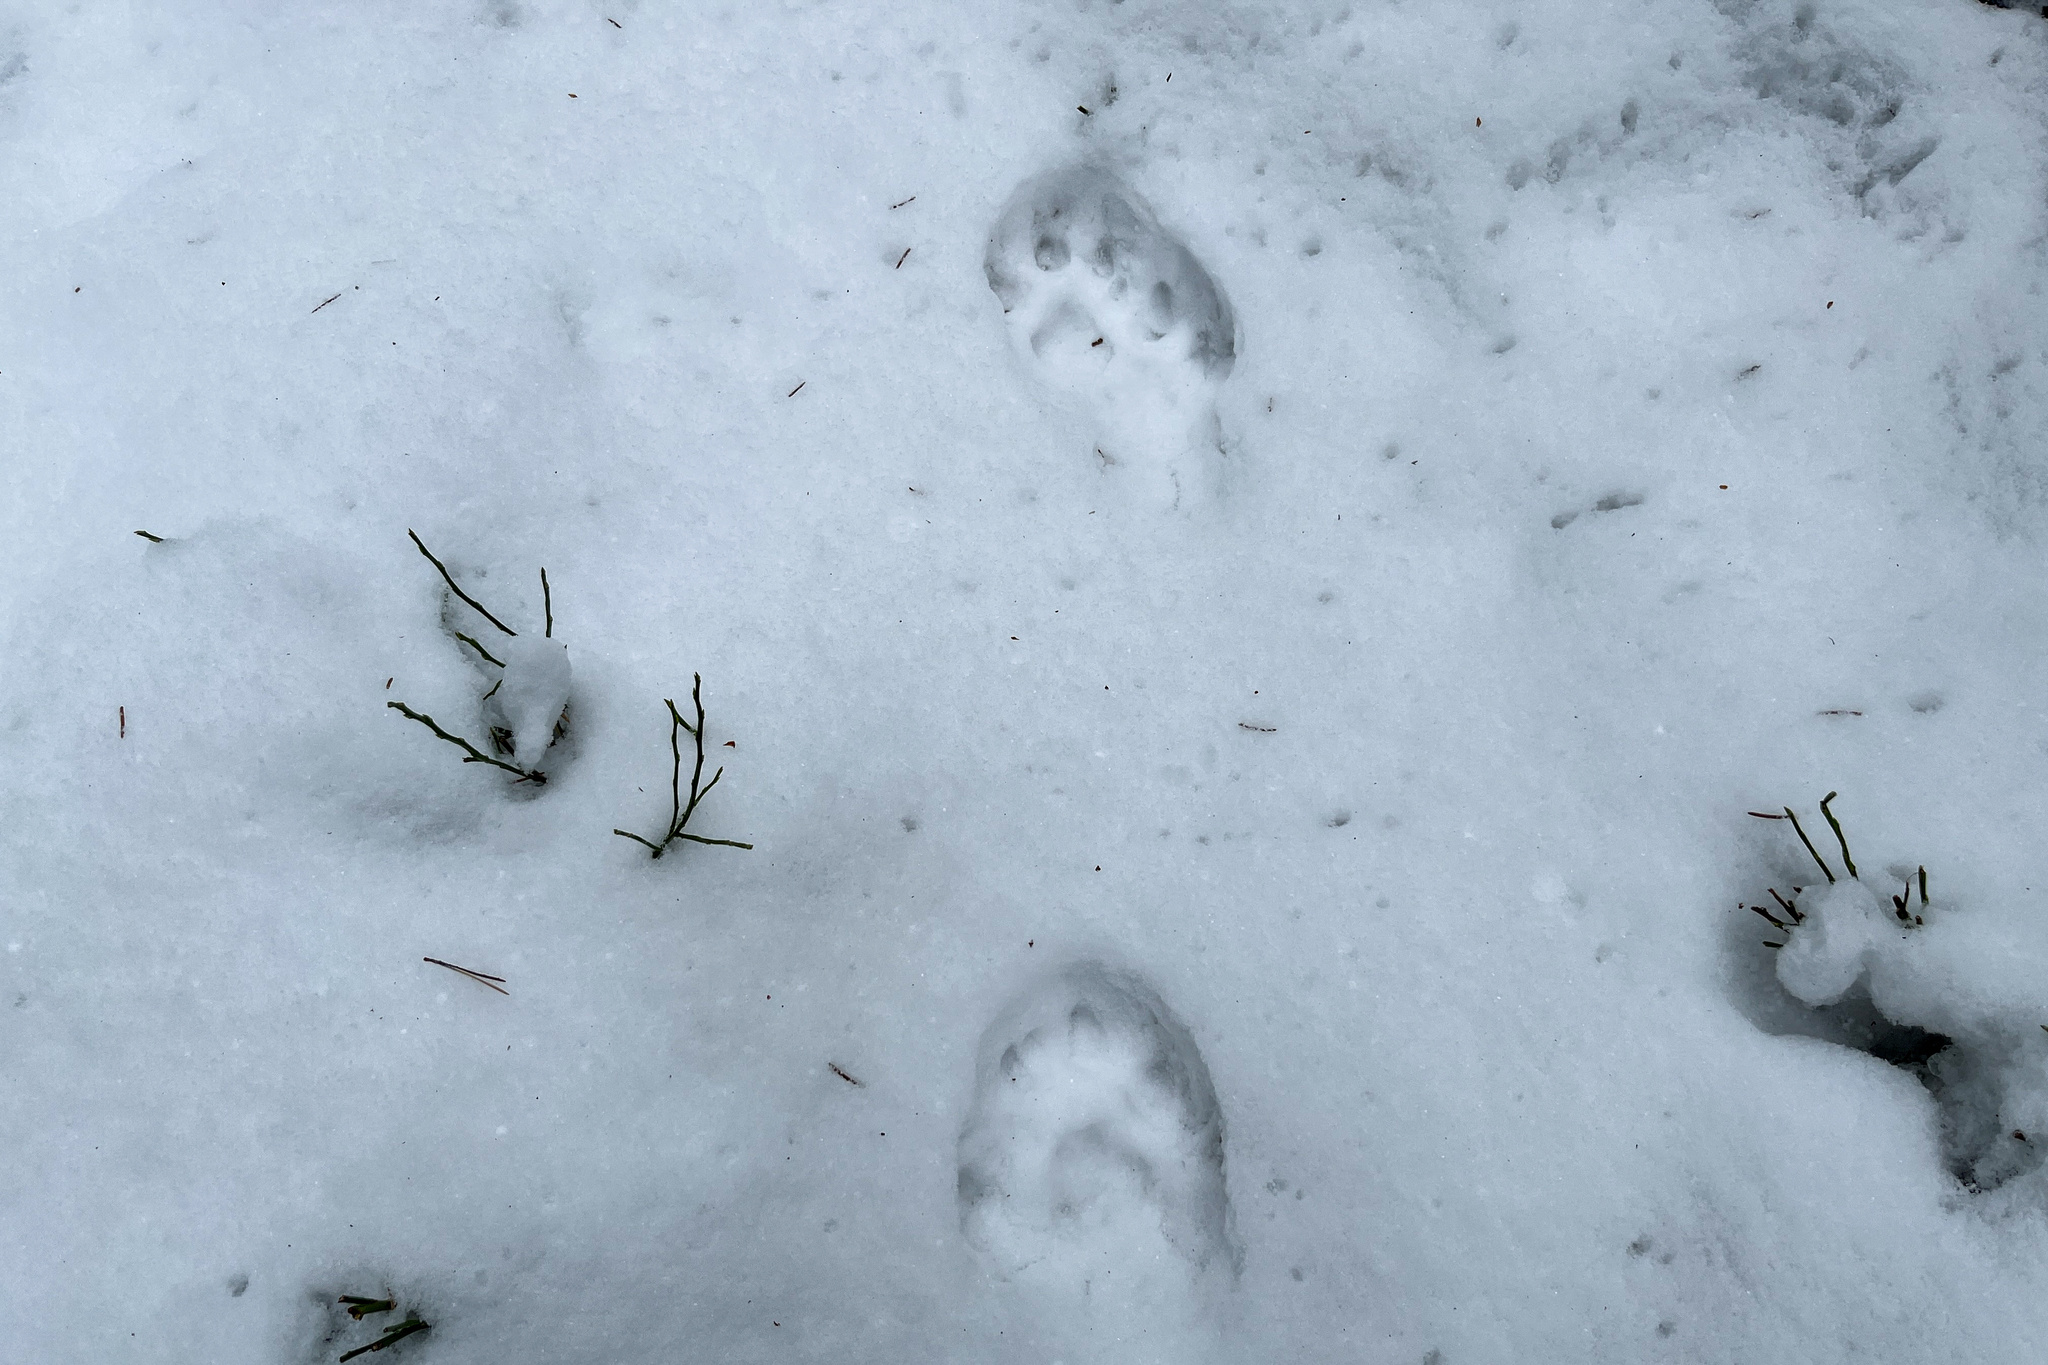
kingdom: Animalia
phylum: Chordata
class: Mammalia
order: Carnivora
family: Felidae
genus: Lynx
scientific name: Lynx lynx
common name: Eurasian lynx
